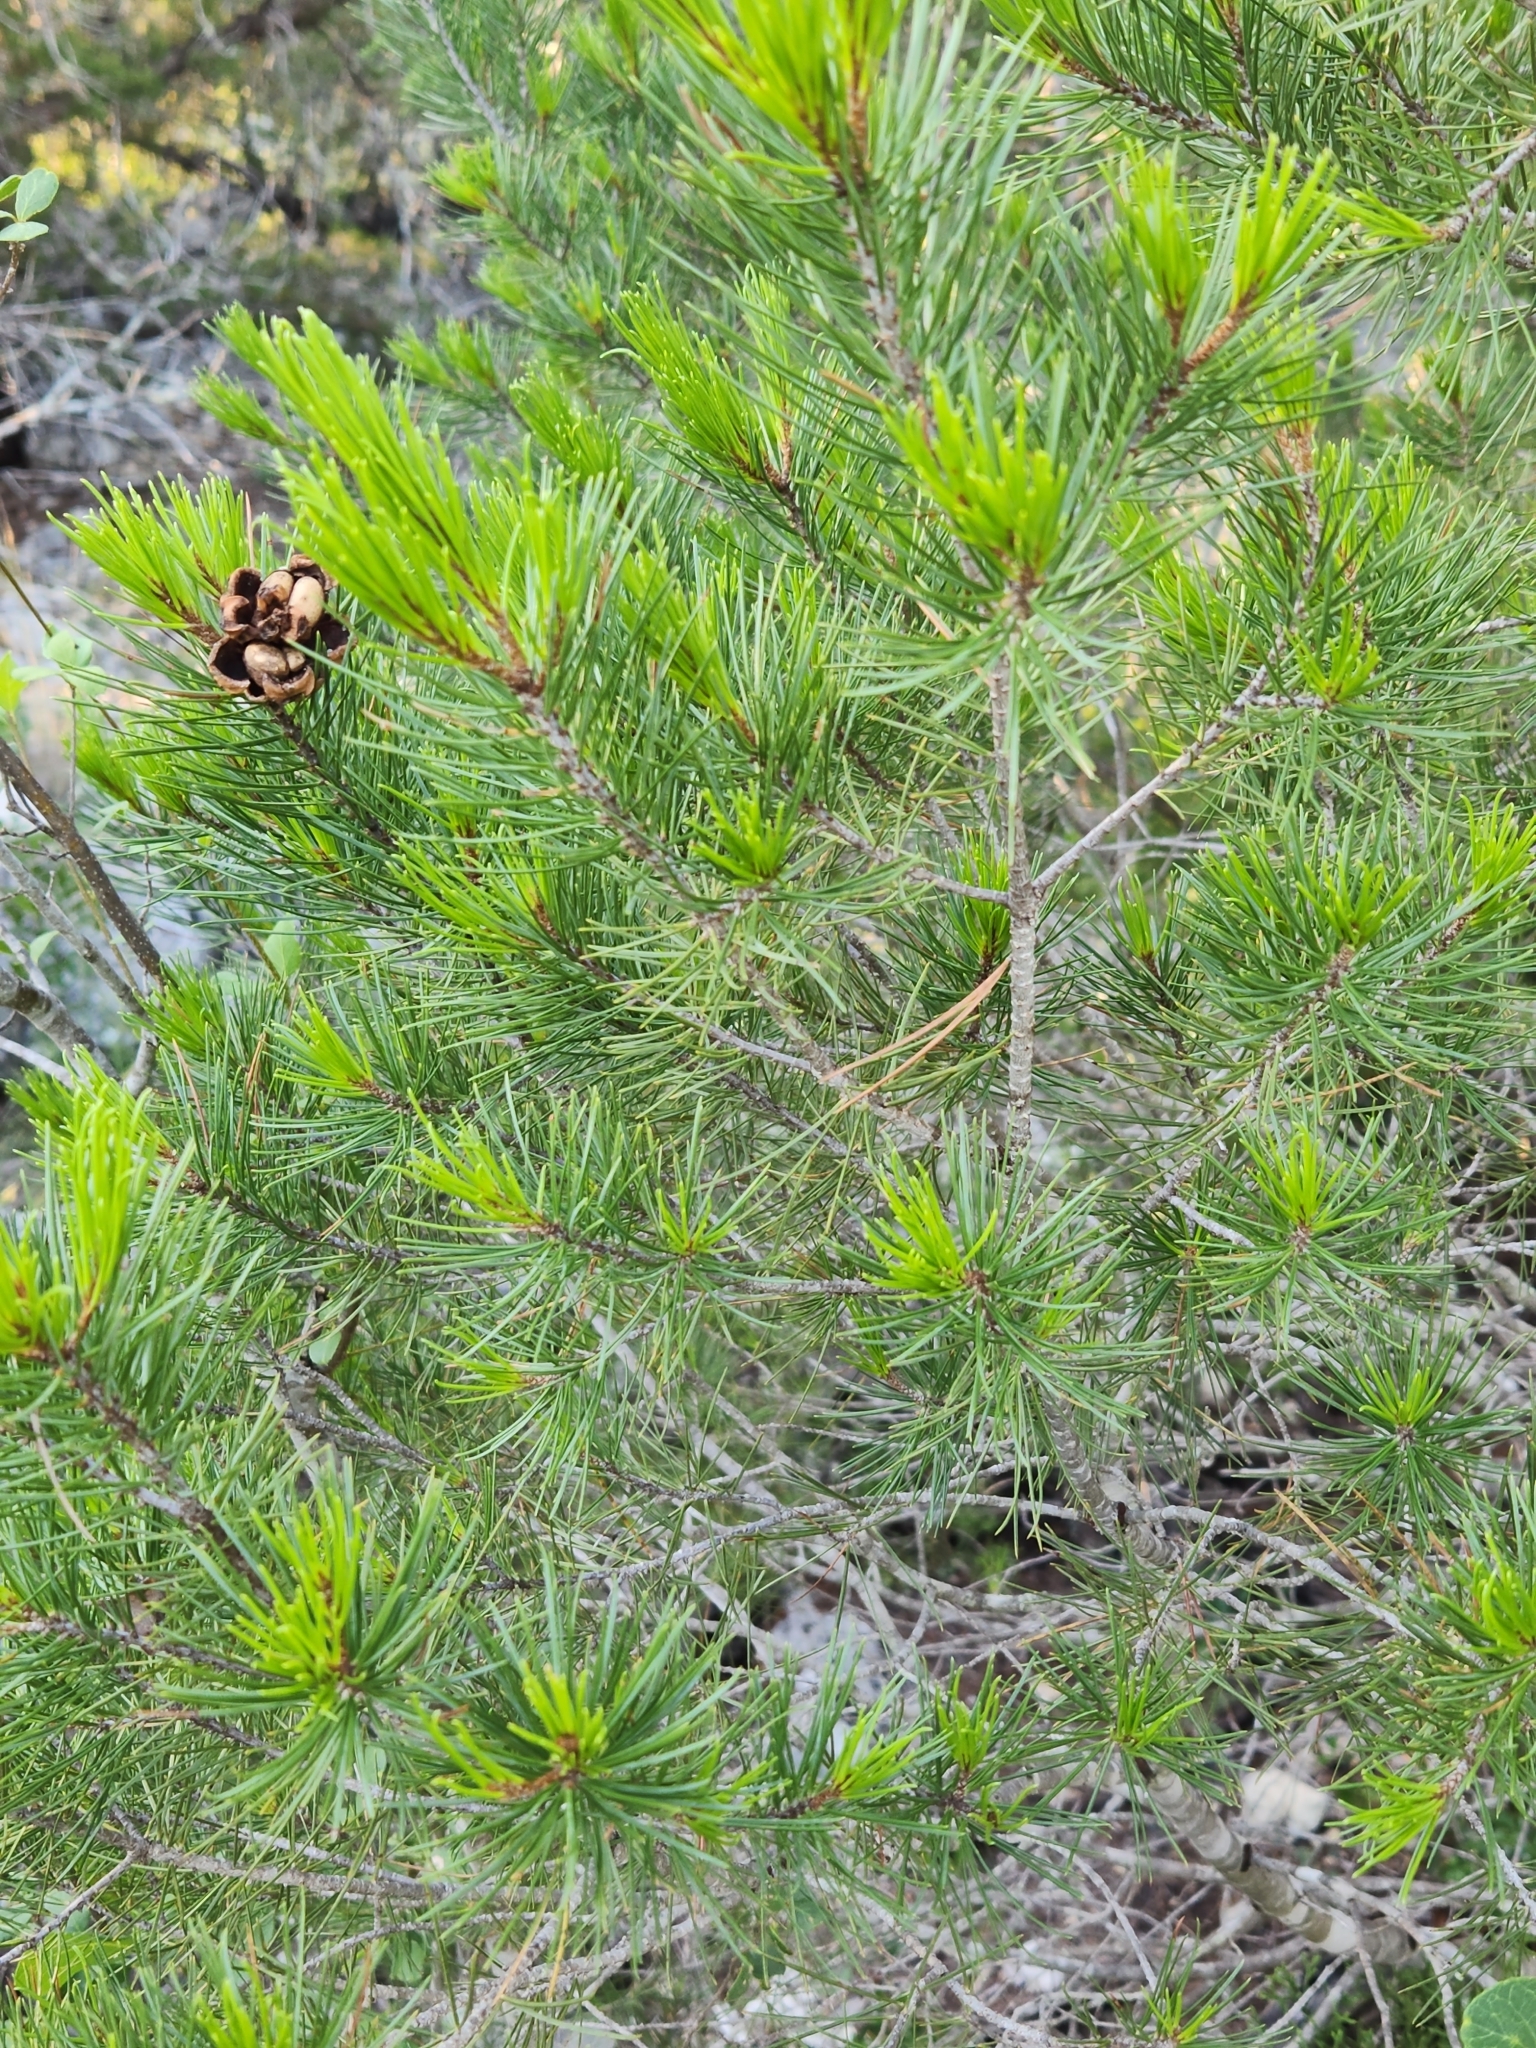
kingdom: Plantae
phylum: Tracheophyta
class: Pinopsida
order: Pinales
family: Pinaceae
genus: Pinus
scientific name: Pinus remota
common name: Nut pine
